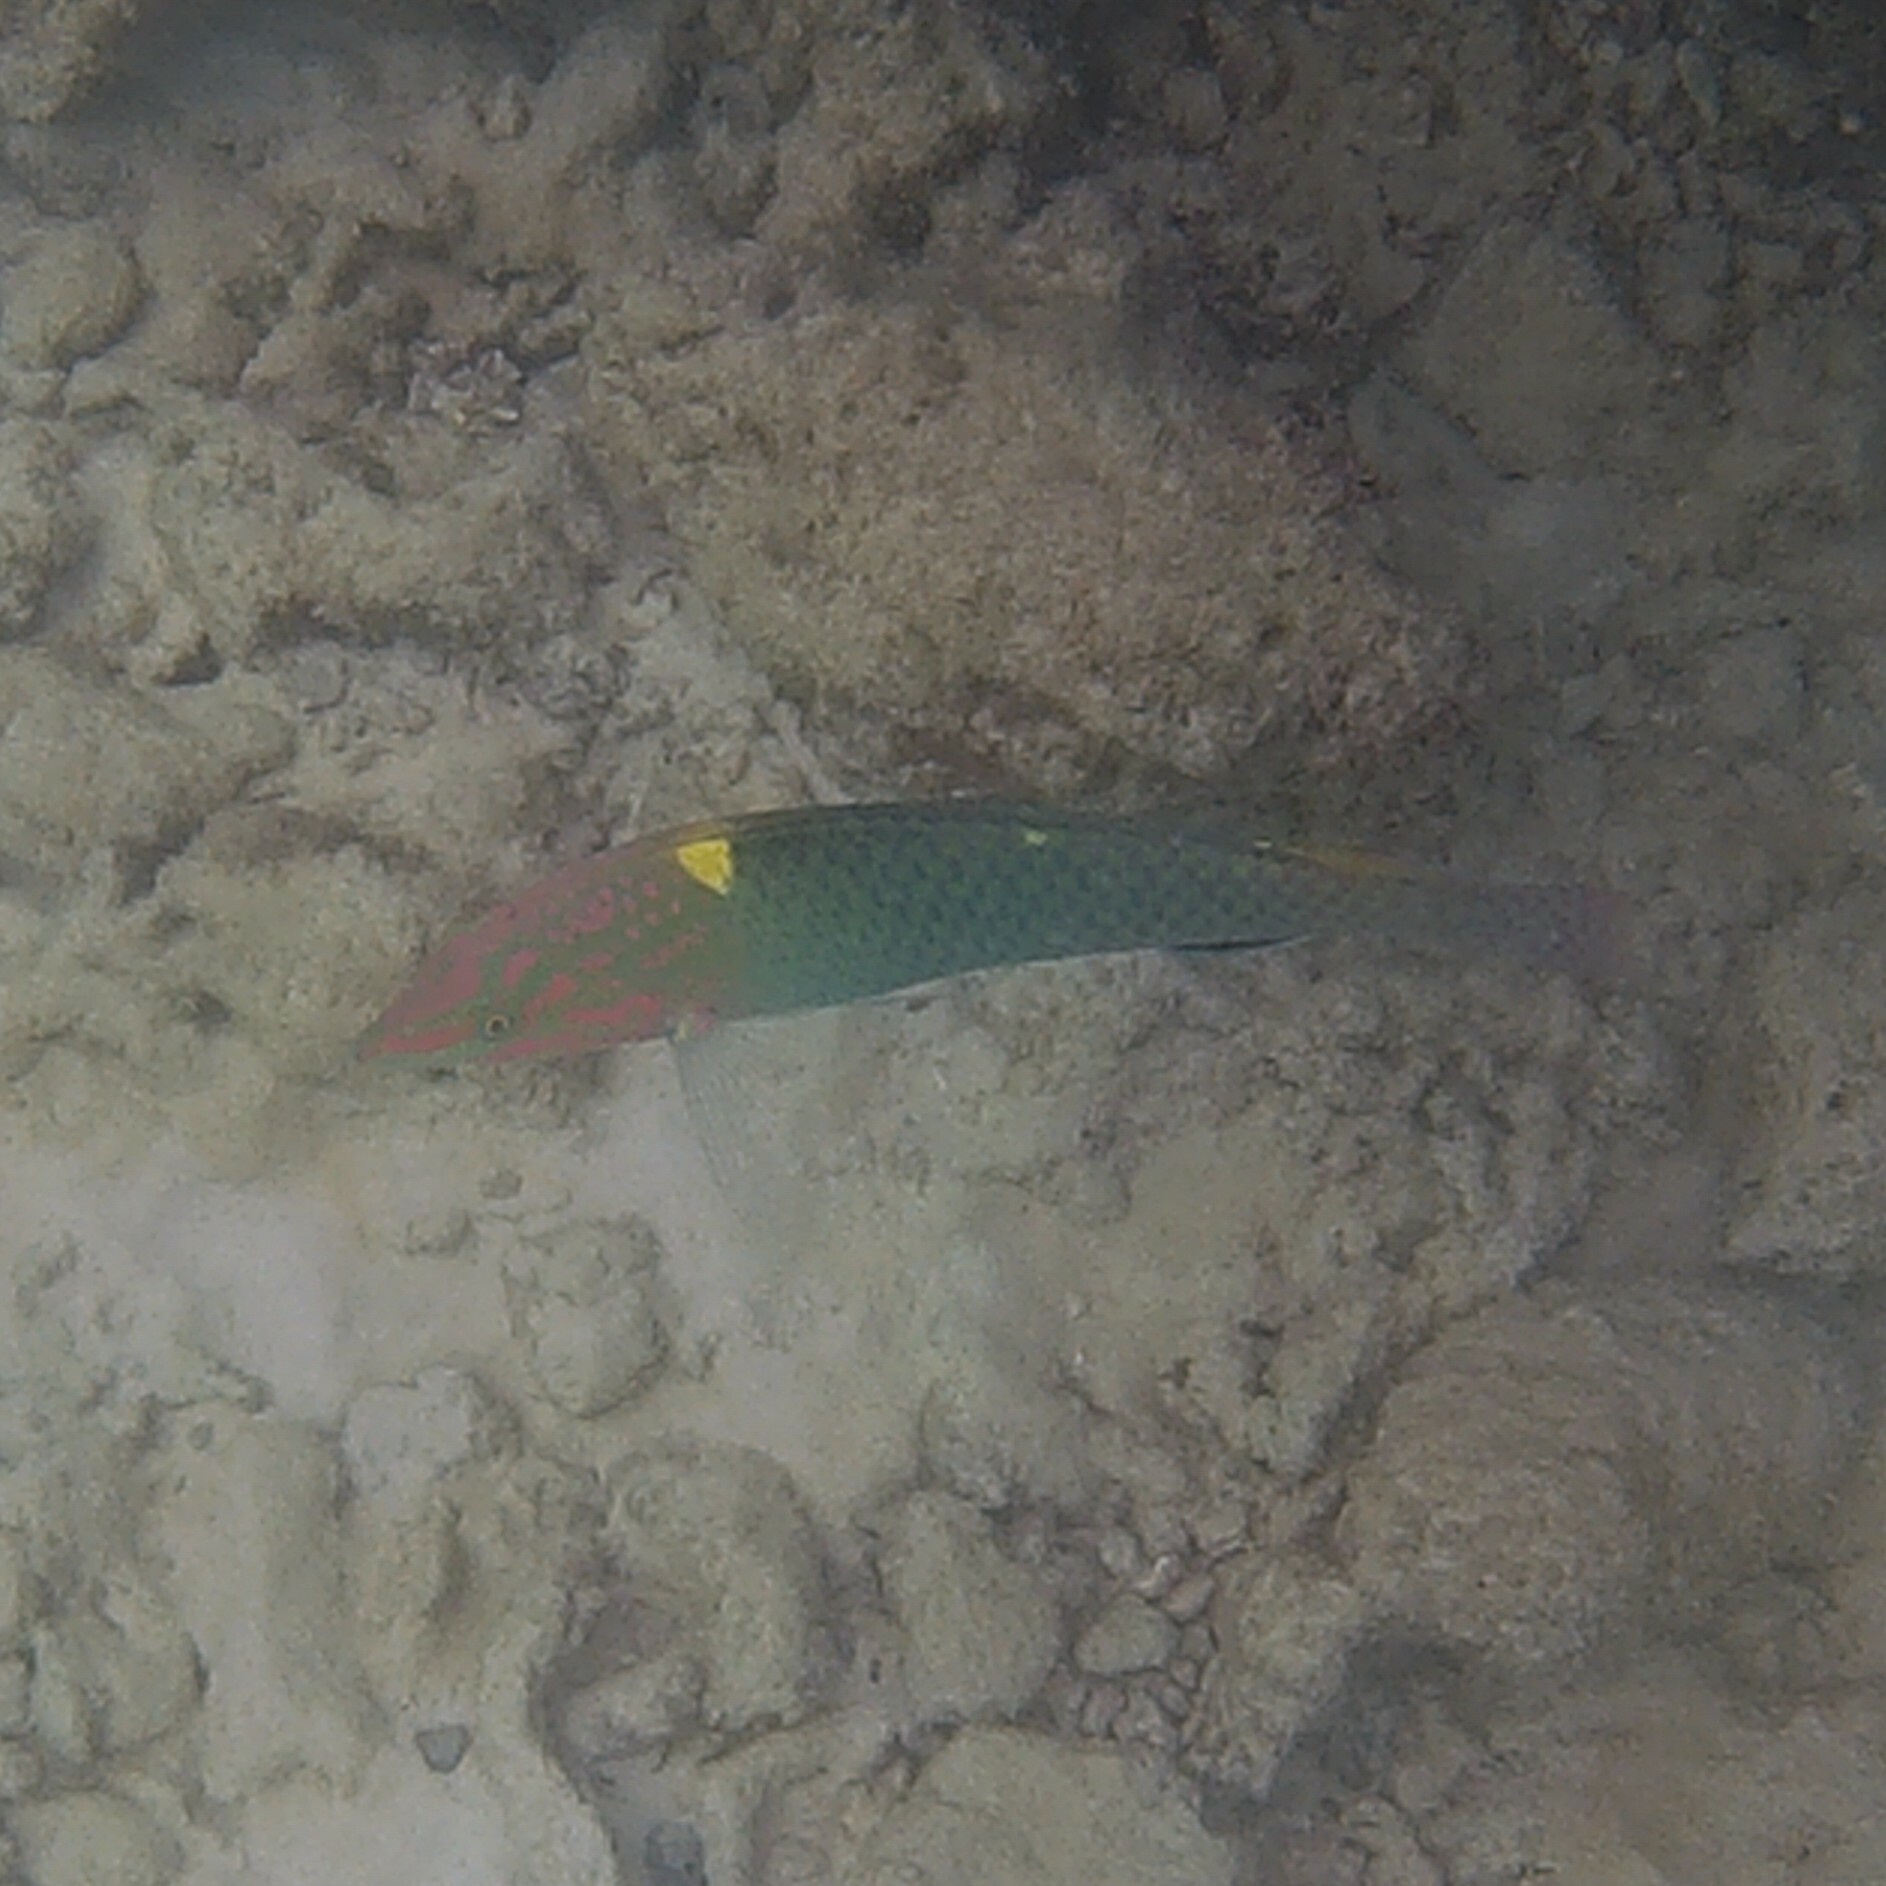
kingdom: Animalia
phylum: Chordata
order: Perciformes
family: Labridae
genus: Halichoeres
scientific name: Halichoeres hortulanus
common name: Checkerboard wrasse
